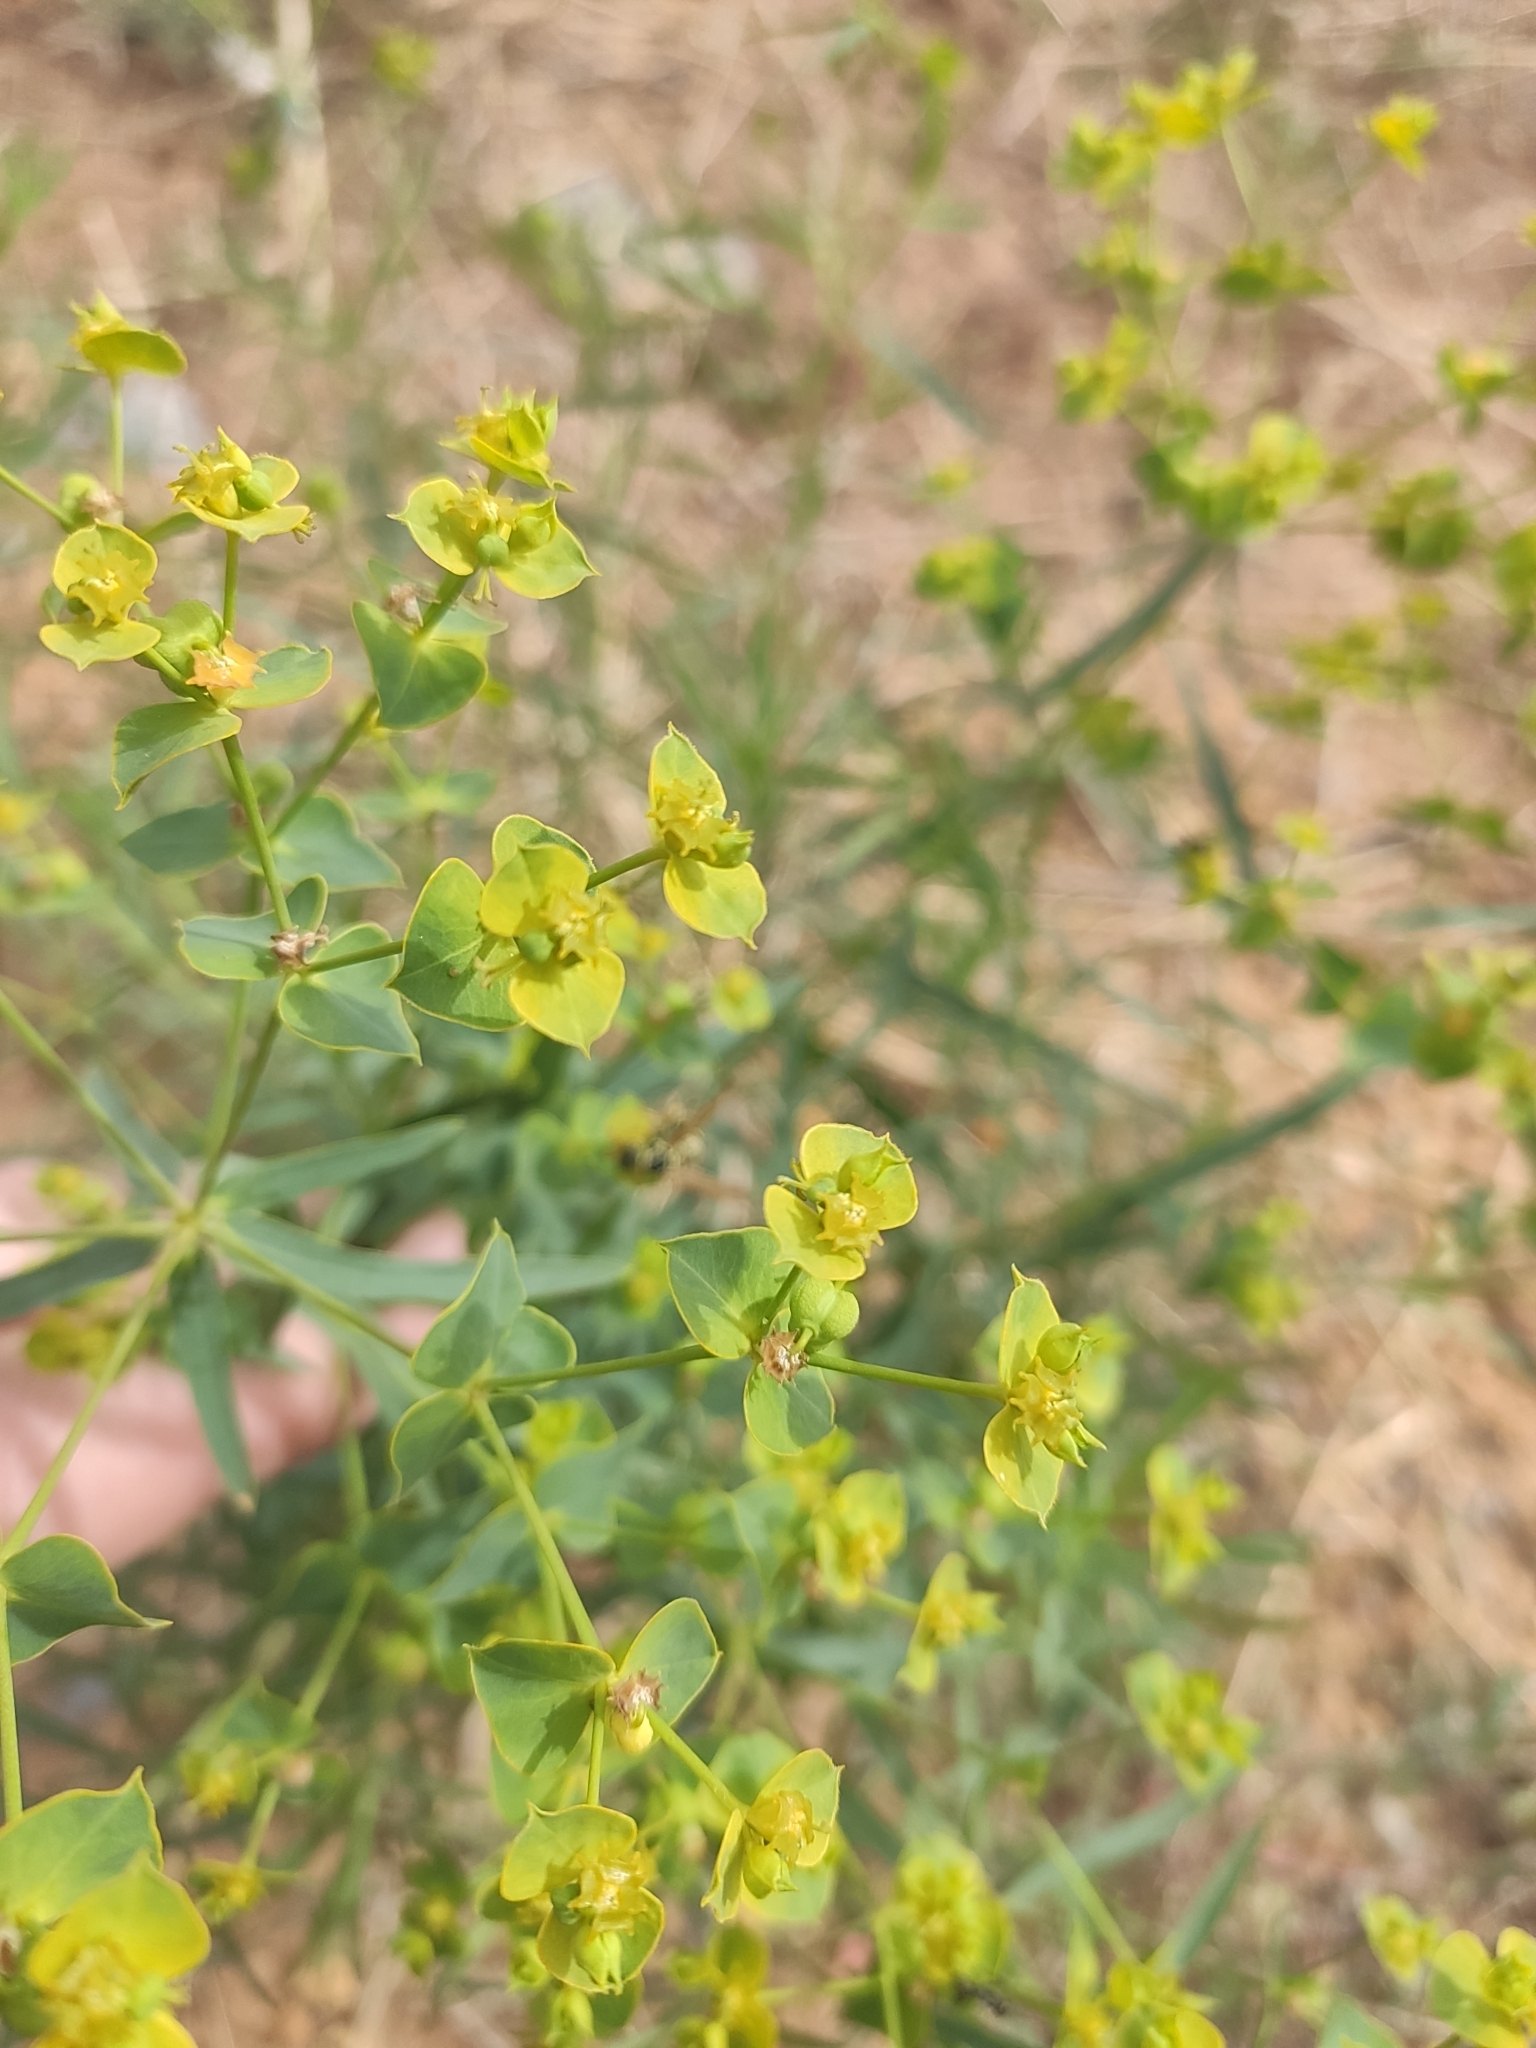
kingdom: Plantae
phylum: Tracheophyta
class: Magnoliopsida
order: Malpighiales
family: Euphorbiaceae
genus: Euphorbia
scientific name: Euphorbia virgata
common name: Leafy spurge
